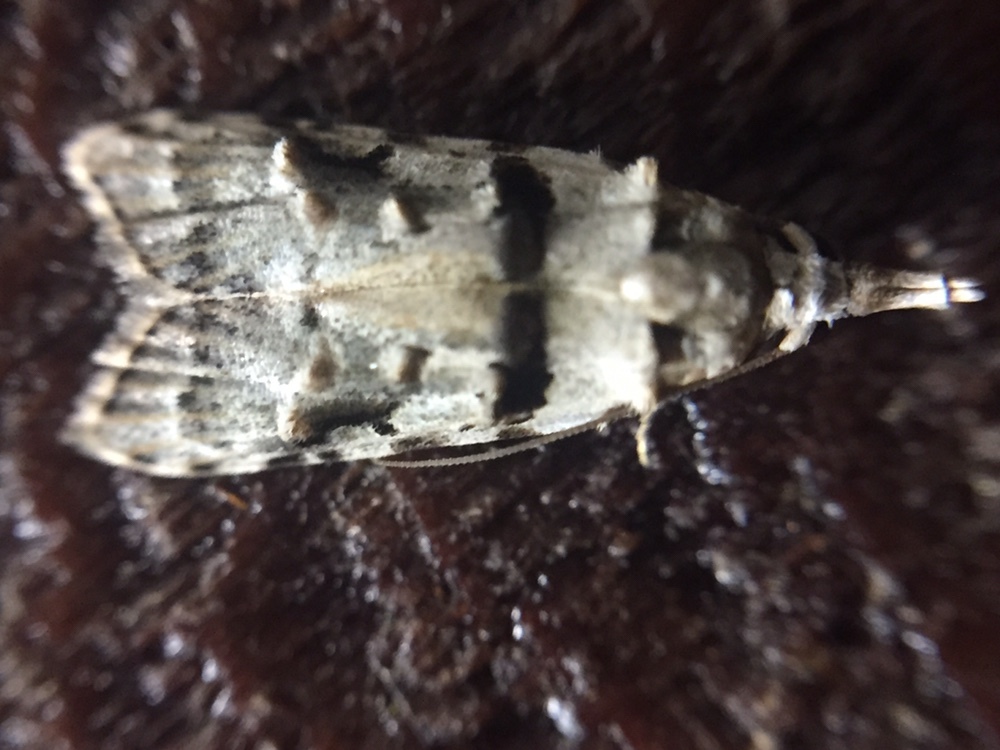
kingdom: Animalia
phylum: Arthropoda
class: Insecta
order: Lepidoptera
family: Carposinidae
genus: Coscinoptycha
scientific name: Coscinoptycha improbana
